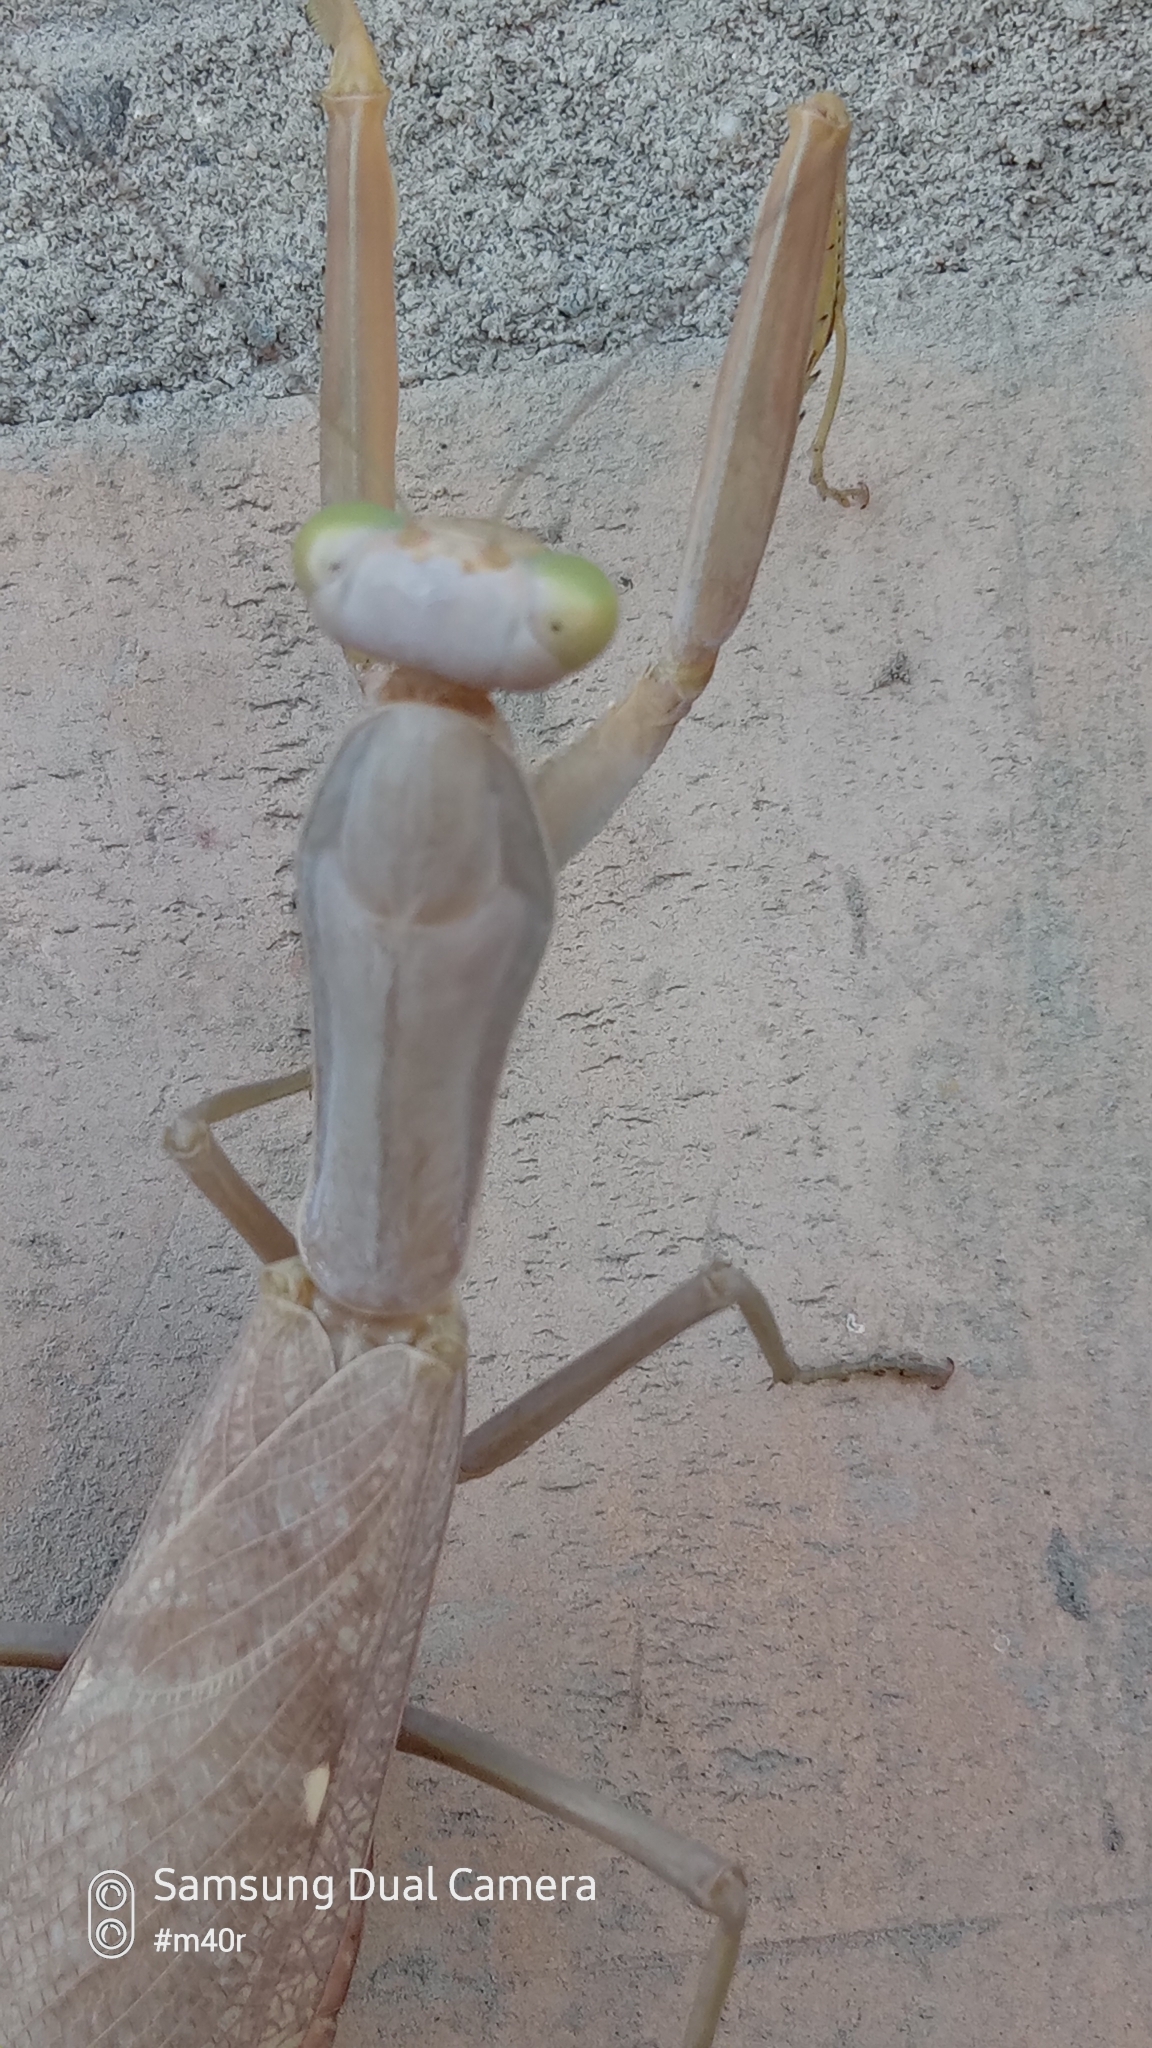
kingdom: Animalia
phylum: Arthropoda
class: Insecta
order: Mantodea
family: Mantidae
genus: Hierodula
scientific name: Hierodula tenuidentata
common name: Giant asian mantis
